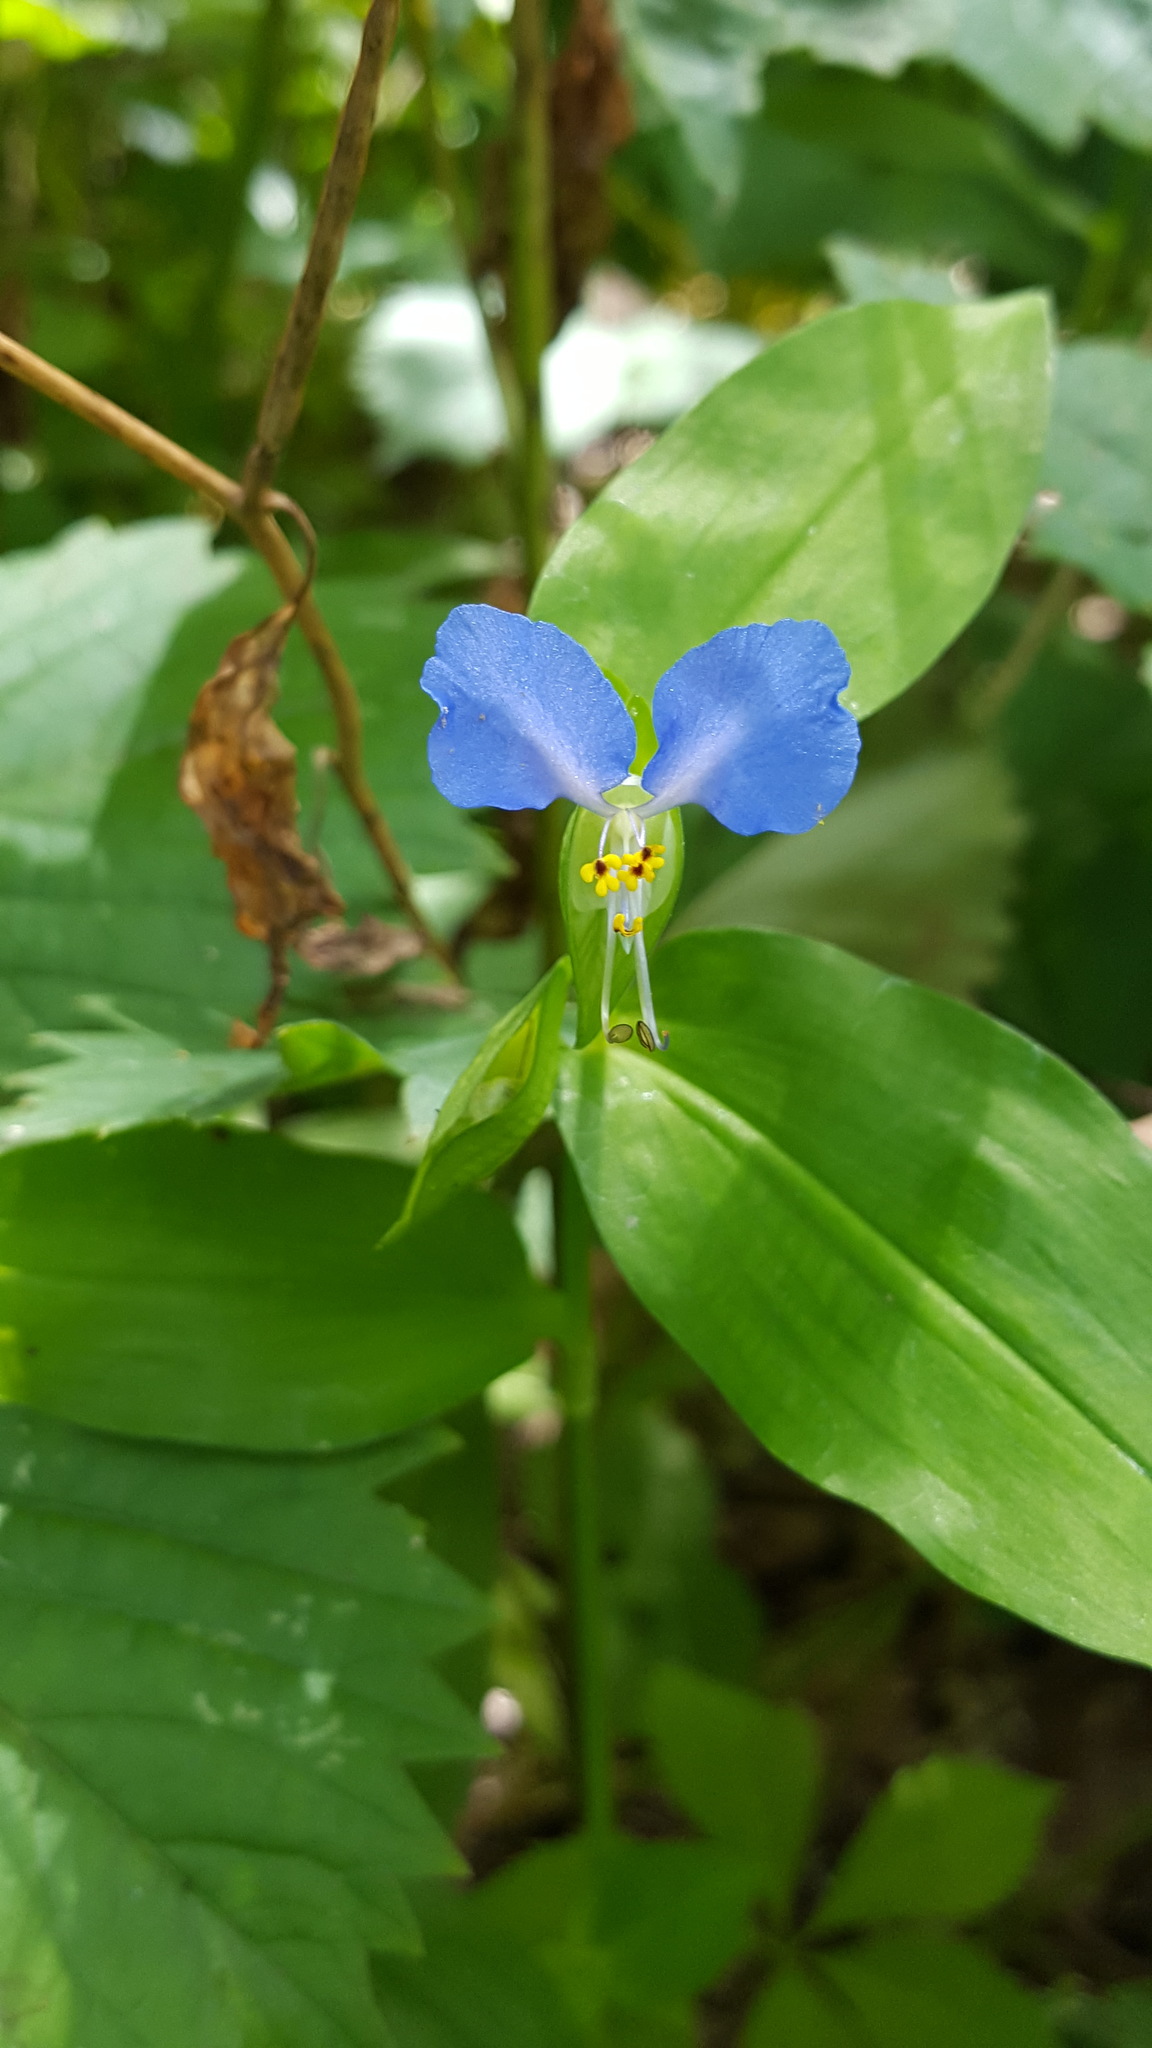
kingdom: Plantae
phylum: Tracheophyta
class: Liliopsida
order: Commelinales
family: Commelinaceae
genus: Commelina
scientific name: Commelina communis
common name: Asiatic dayflower
